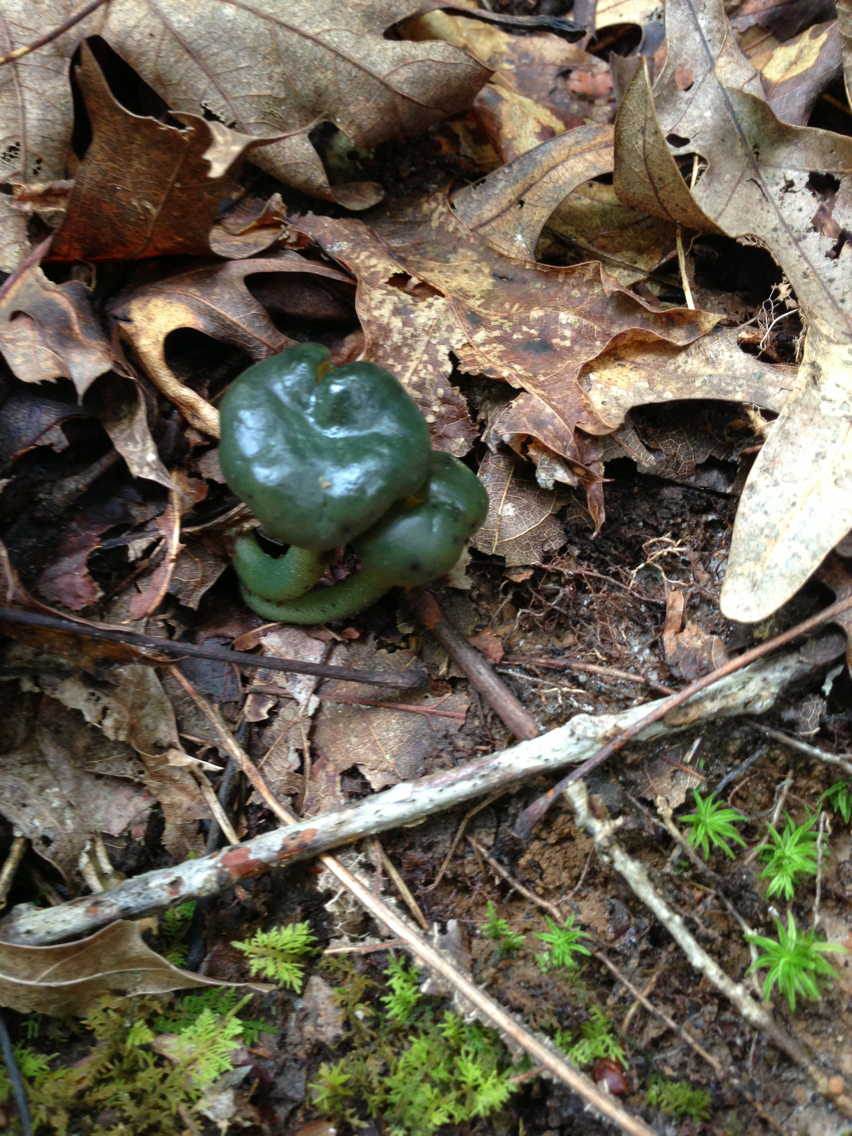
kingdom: Fungi
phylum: Ascomycota
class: Leotiomycetes
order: Leotiales
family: Leotiaceae
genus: Leotia
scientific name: Leotia atrovirens
